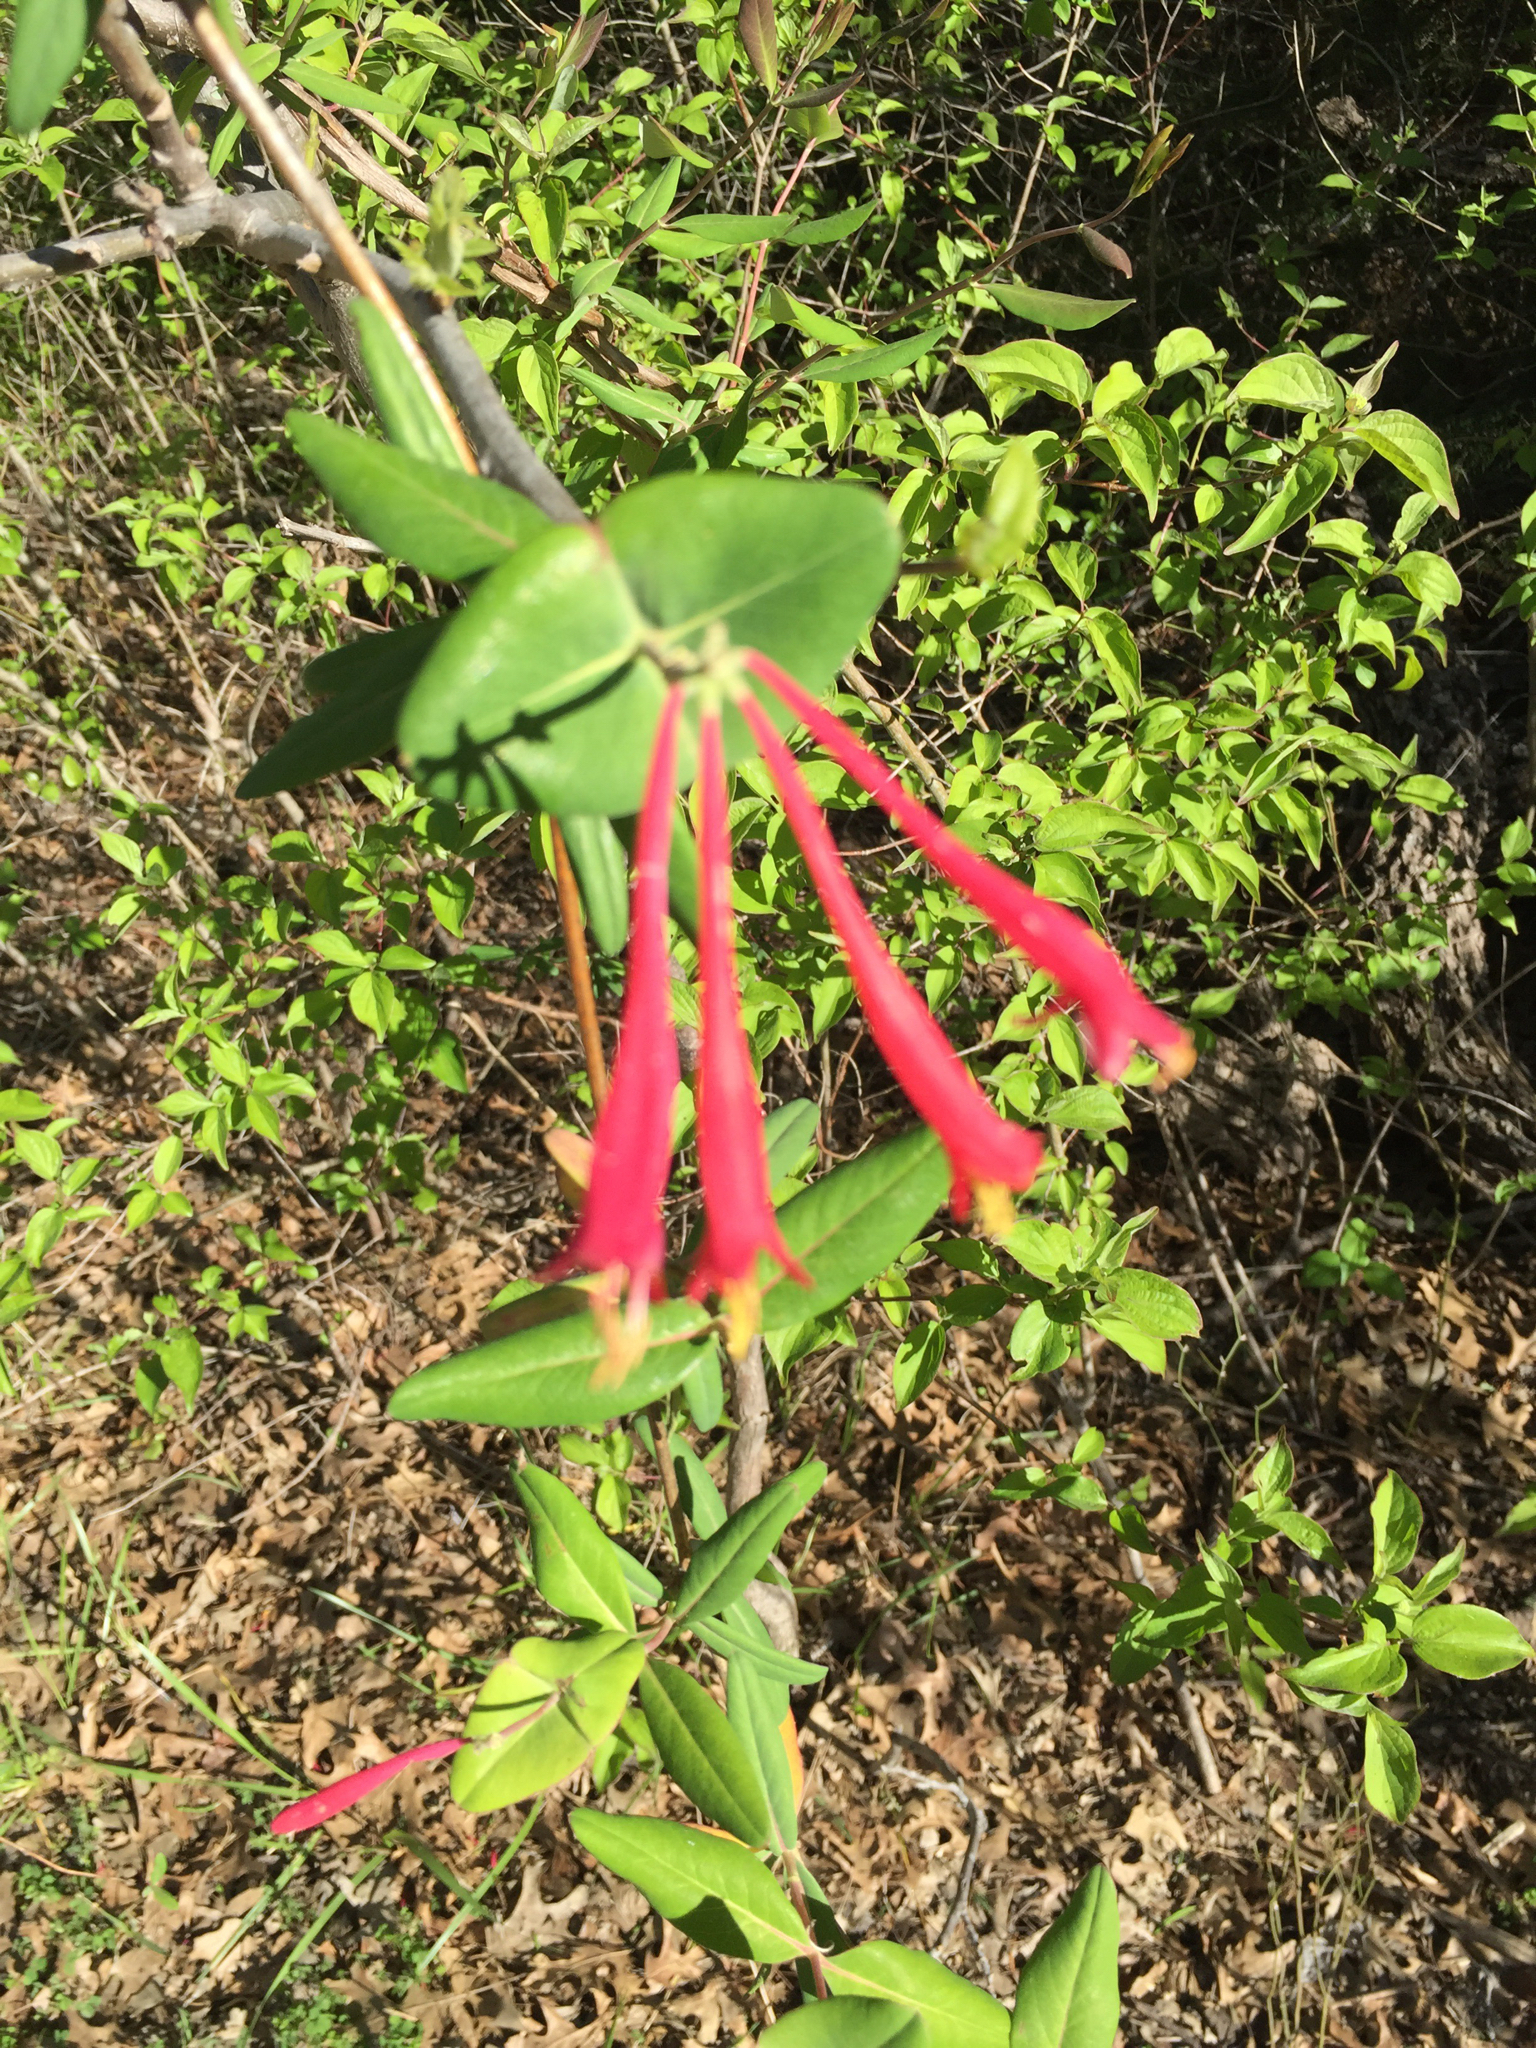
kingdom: Plantae
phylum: Tracheophyta
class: Magnoliopsida
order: Dipsacales
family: Caprifoliaceae
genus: Lonicera
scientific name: Lonicera sempervirens
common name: Coral honeysuckle
